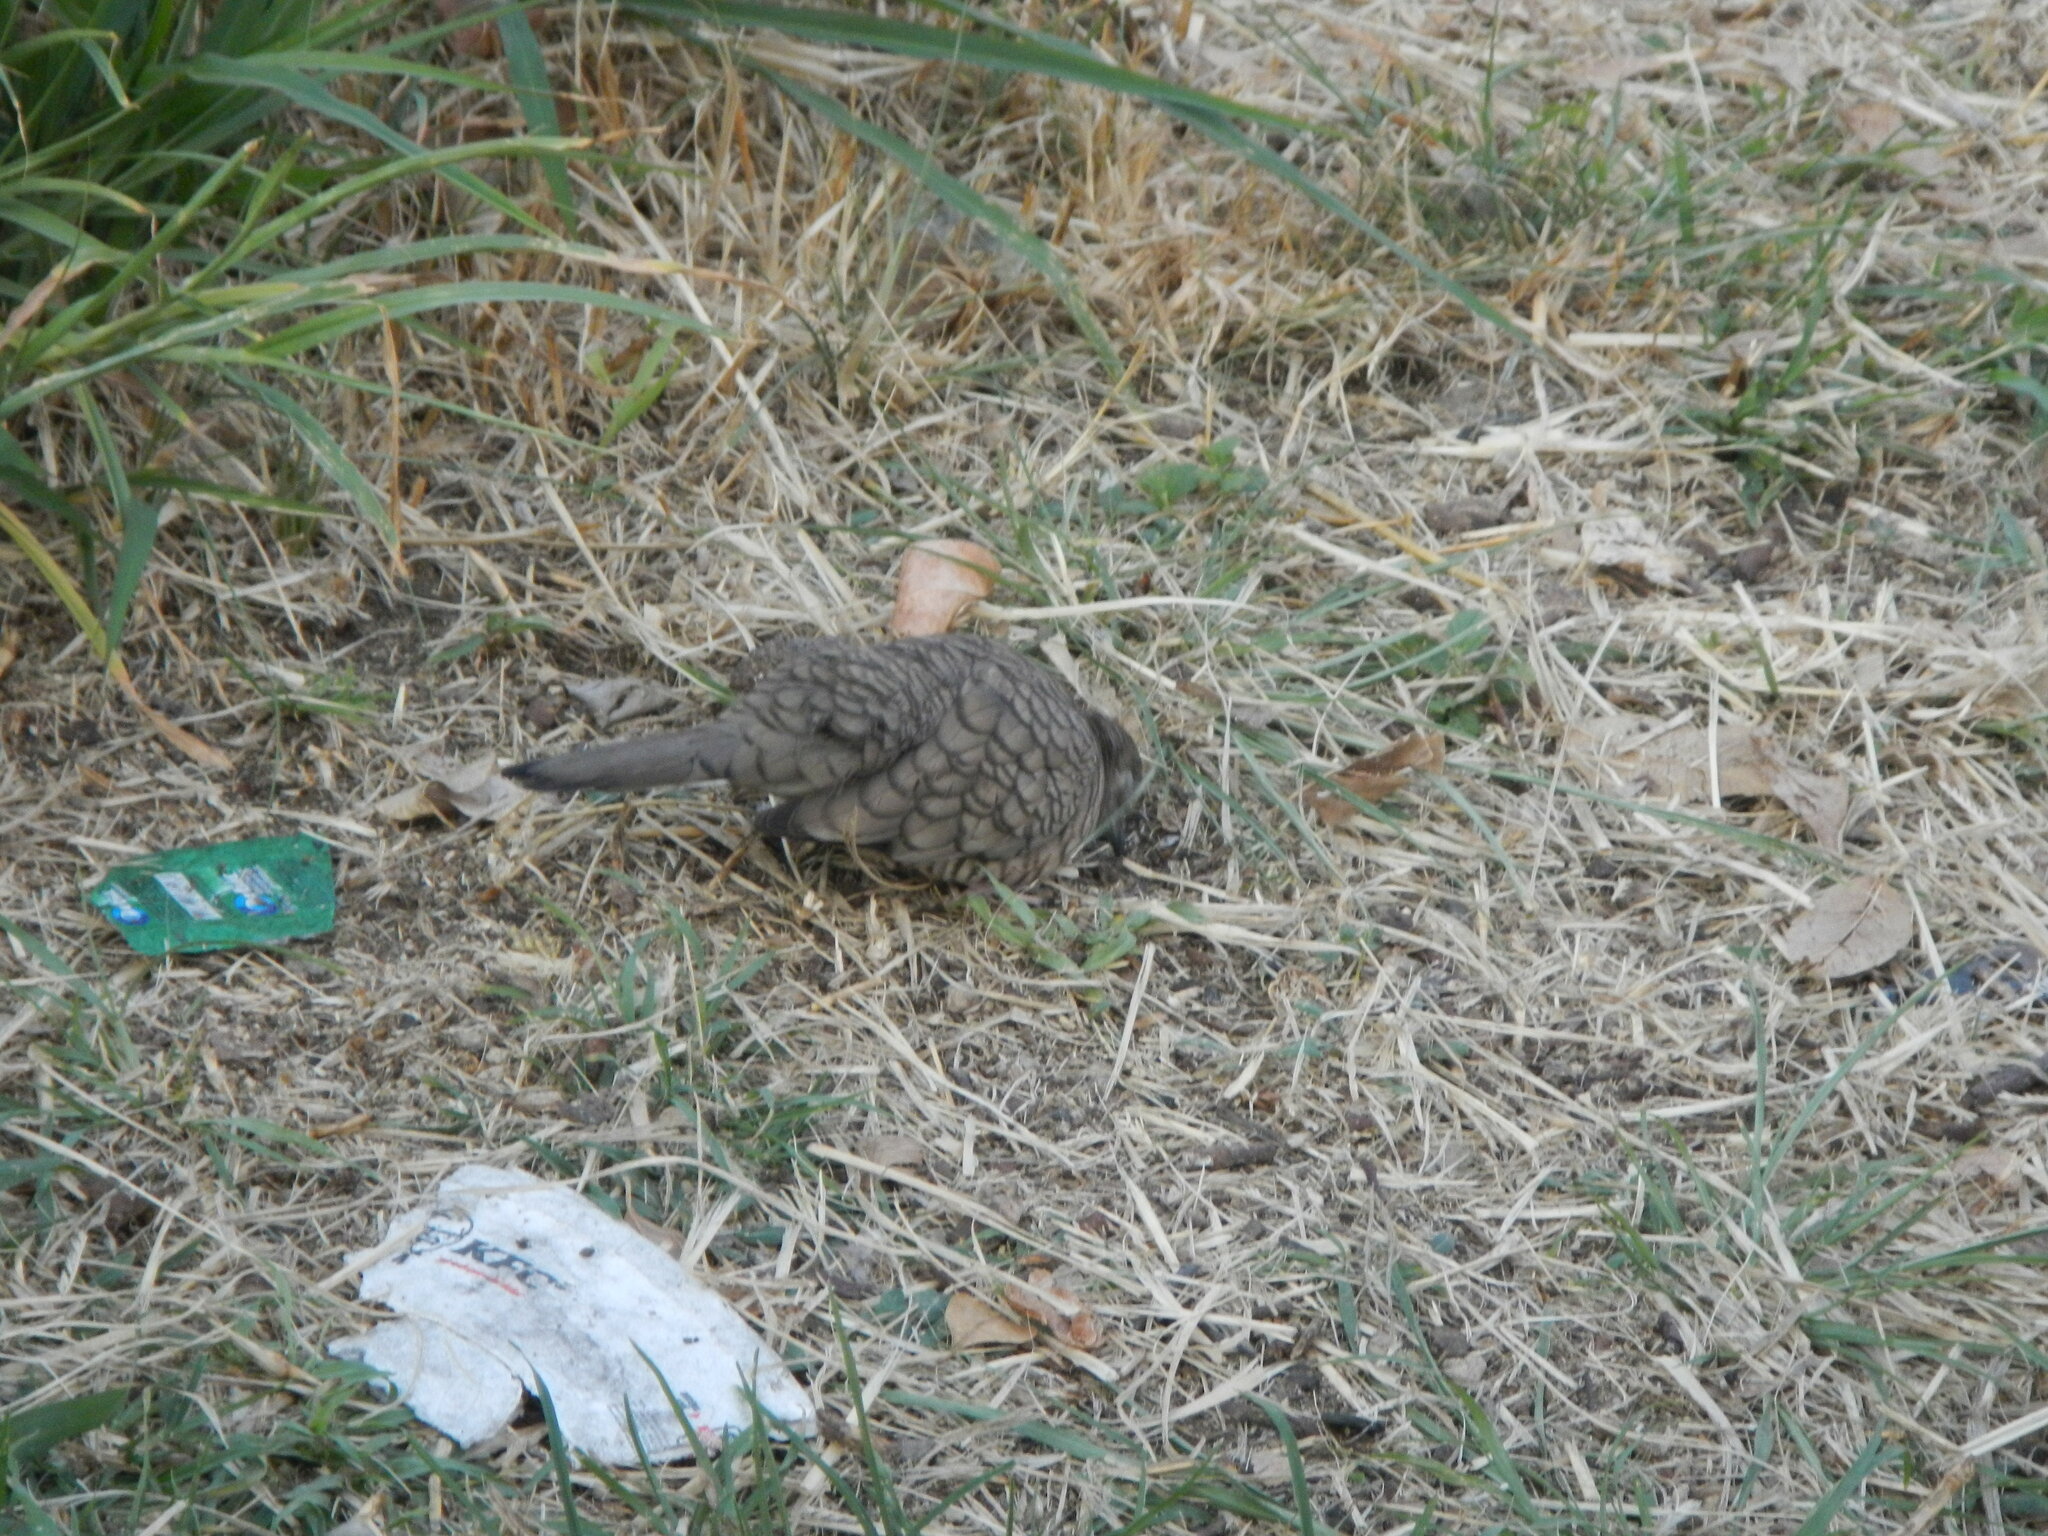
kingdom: Animalia
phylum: Chordata
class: Aves
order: Columbiformes
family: Columbidae
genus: Columbina
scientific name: Columbina inca
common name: Inca dove
